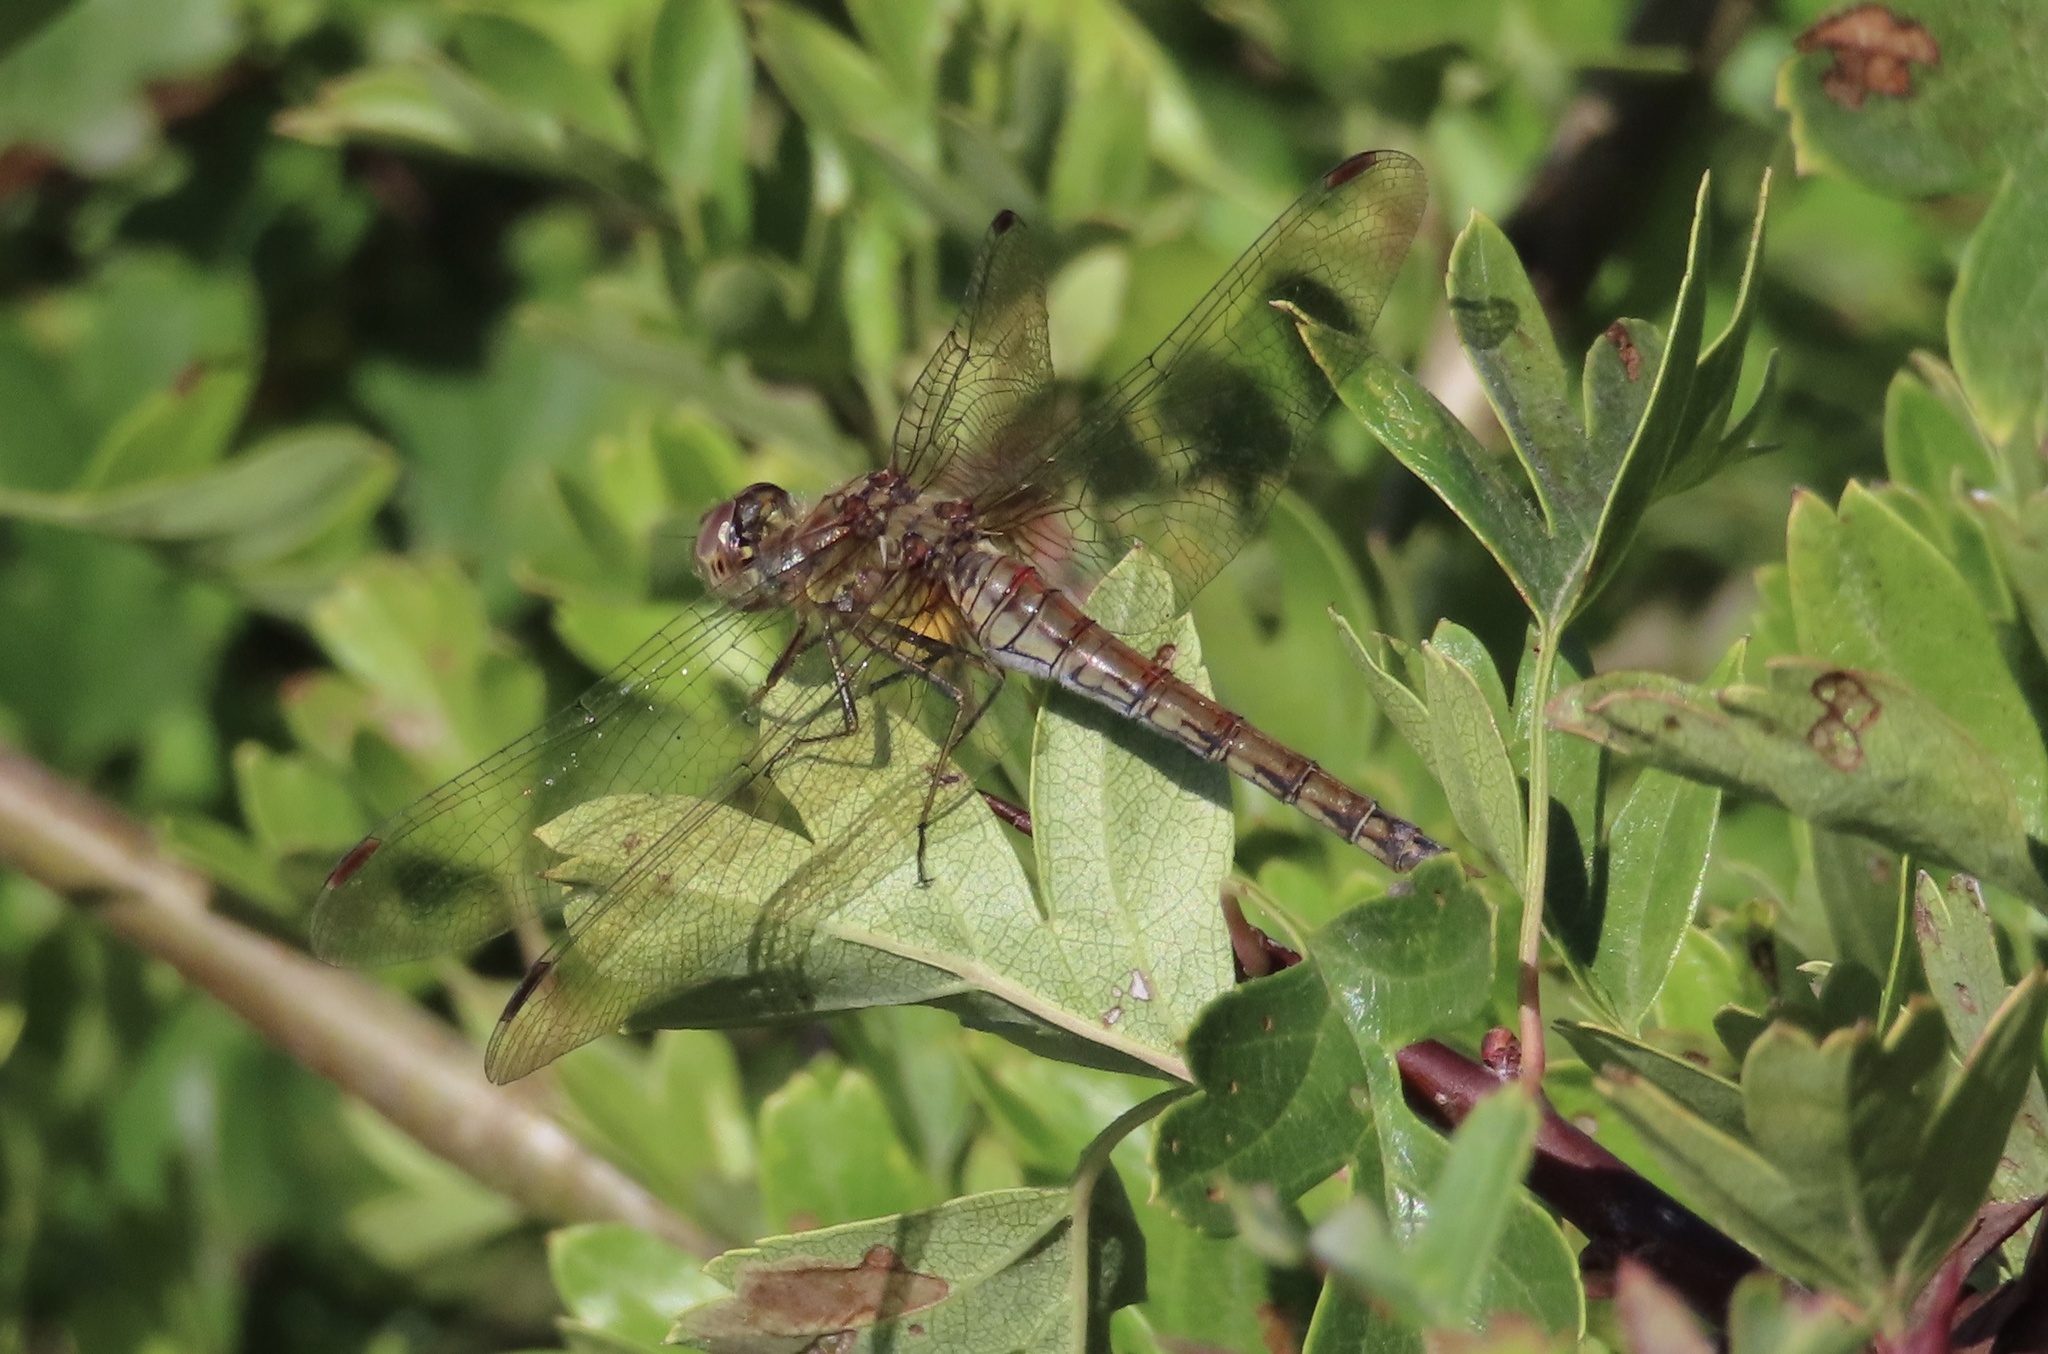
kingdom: Animalia
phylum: Arthropoda
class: Insecta
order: Odonata
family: Libellulidae
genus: Sympetrum
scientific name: Sympetrum striolatum
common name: Common darter
